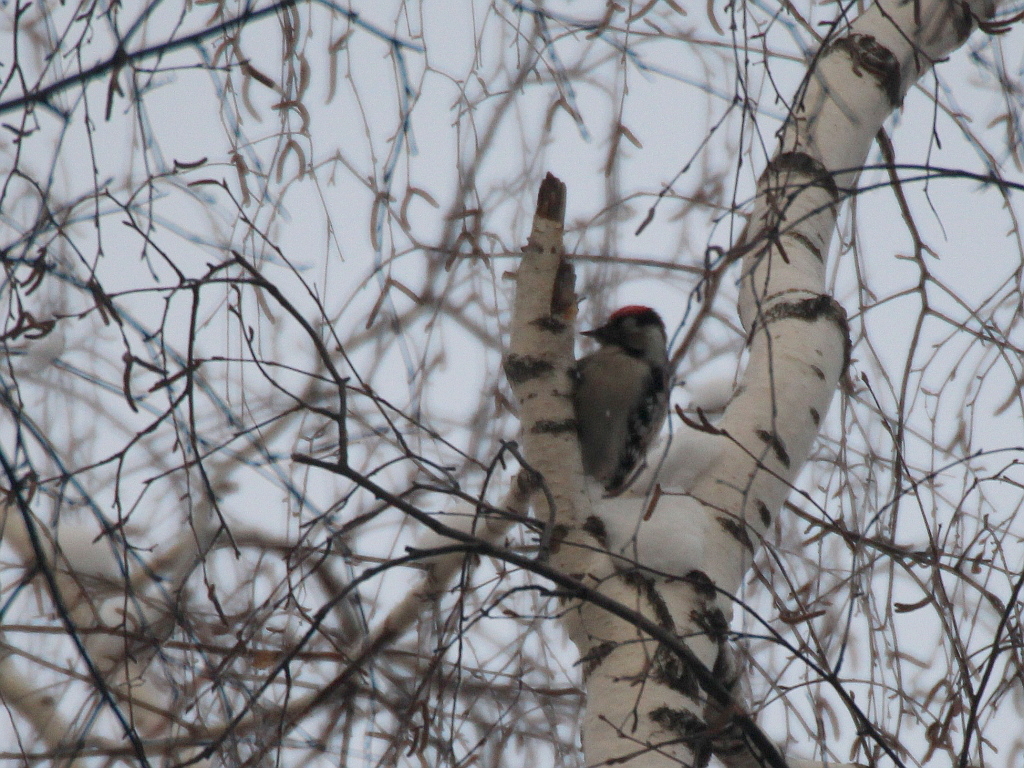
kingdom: Animalia
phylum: Chordata
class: Aves
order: Piciformes
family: Picidae
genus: Dryobates
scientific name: Dryobates minor
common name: Lesser spotted woodpecker
